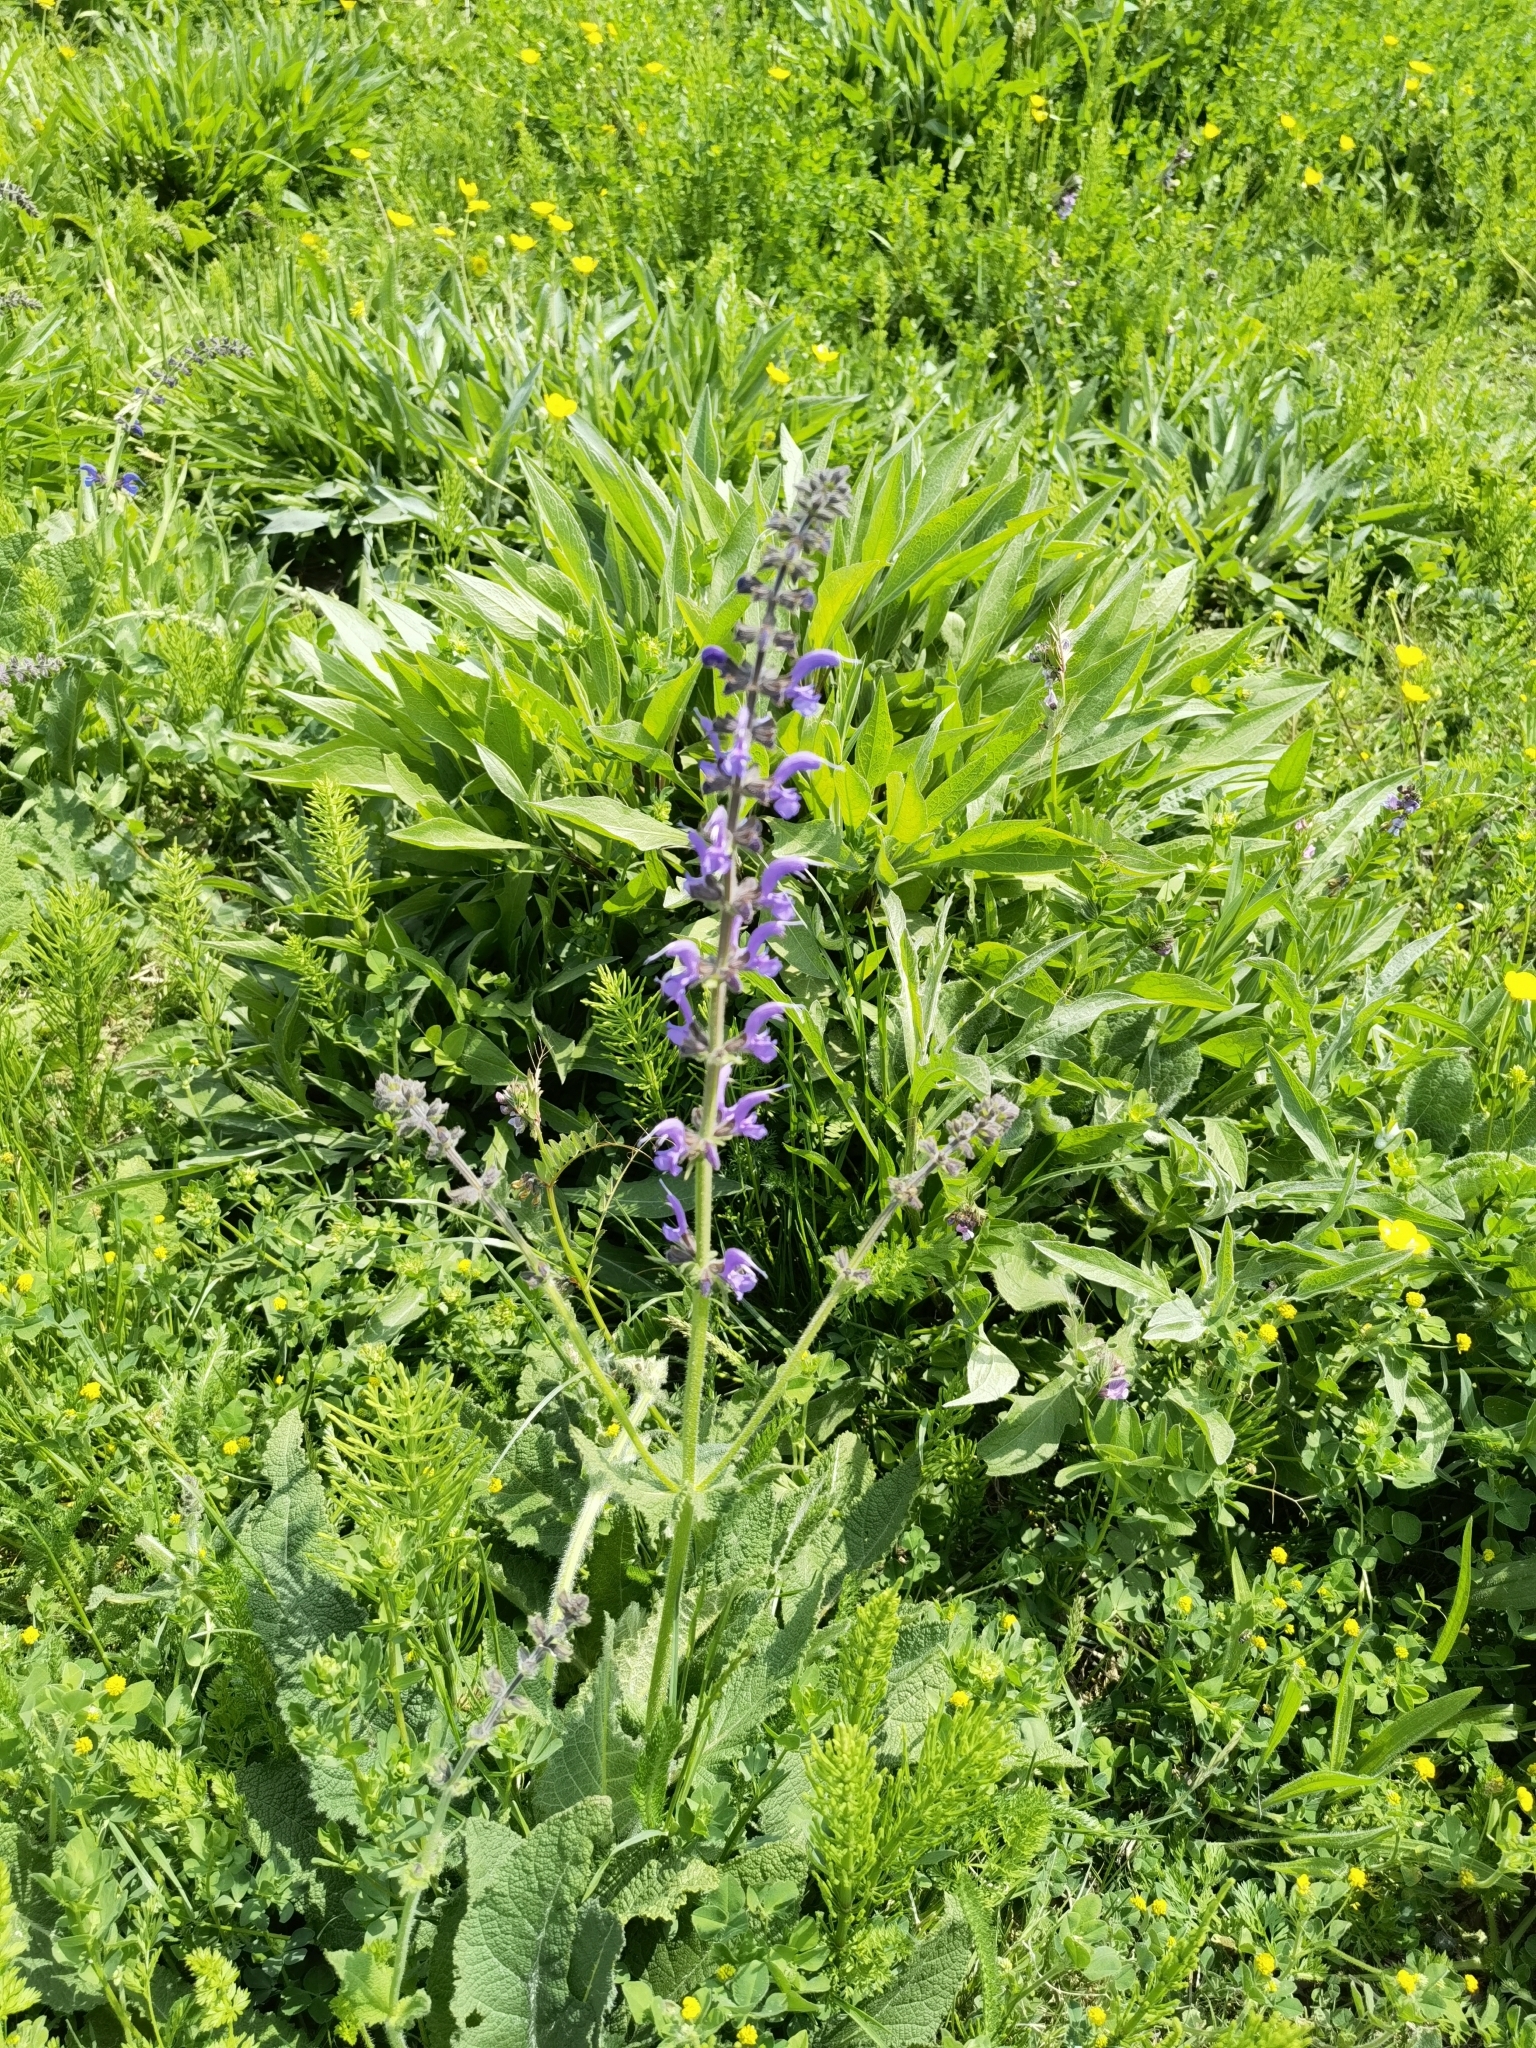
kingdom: Plantae
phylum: Tracheophyta
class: Magnoliopsida
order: Lamiales
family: Lamiaceae
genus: Salvia
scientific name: Salvia pratensis
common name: Meadow sage
